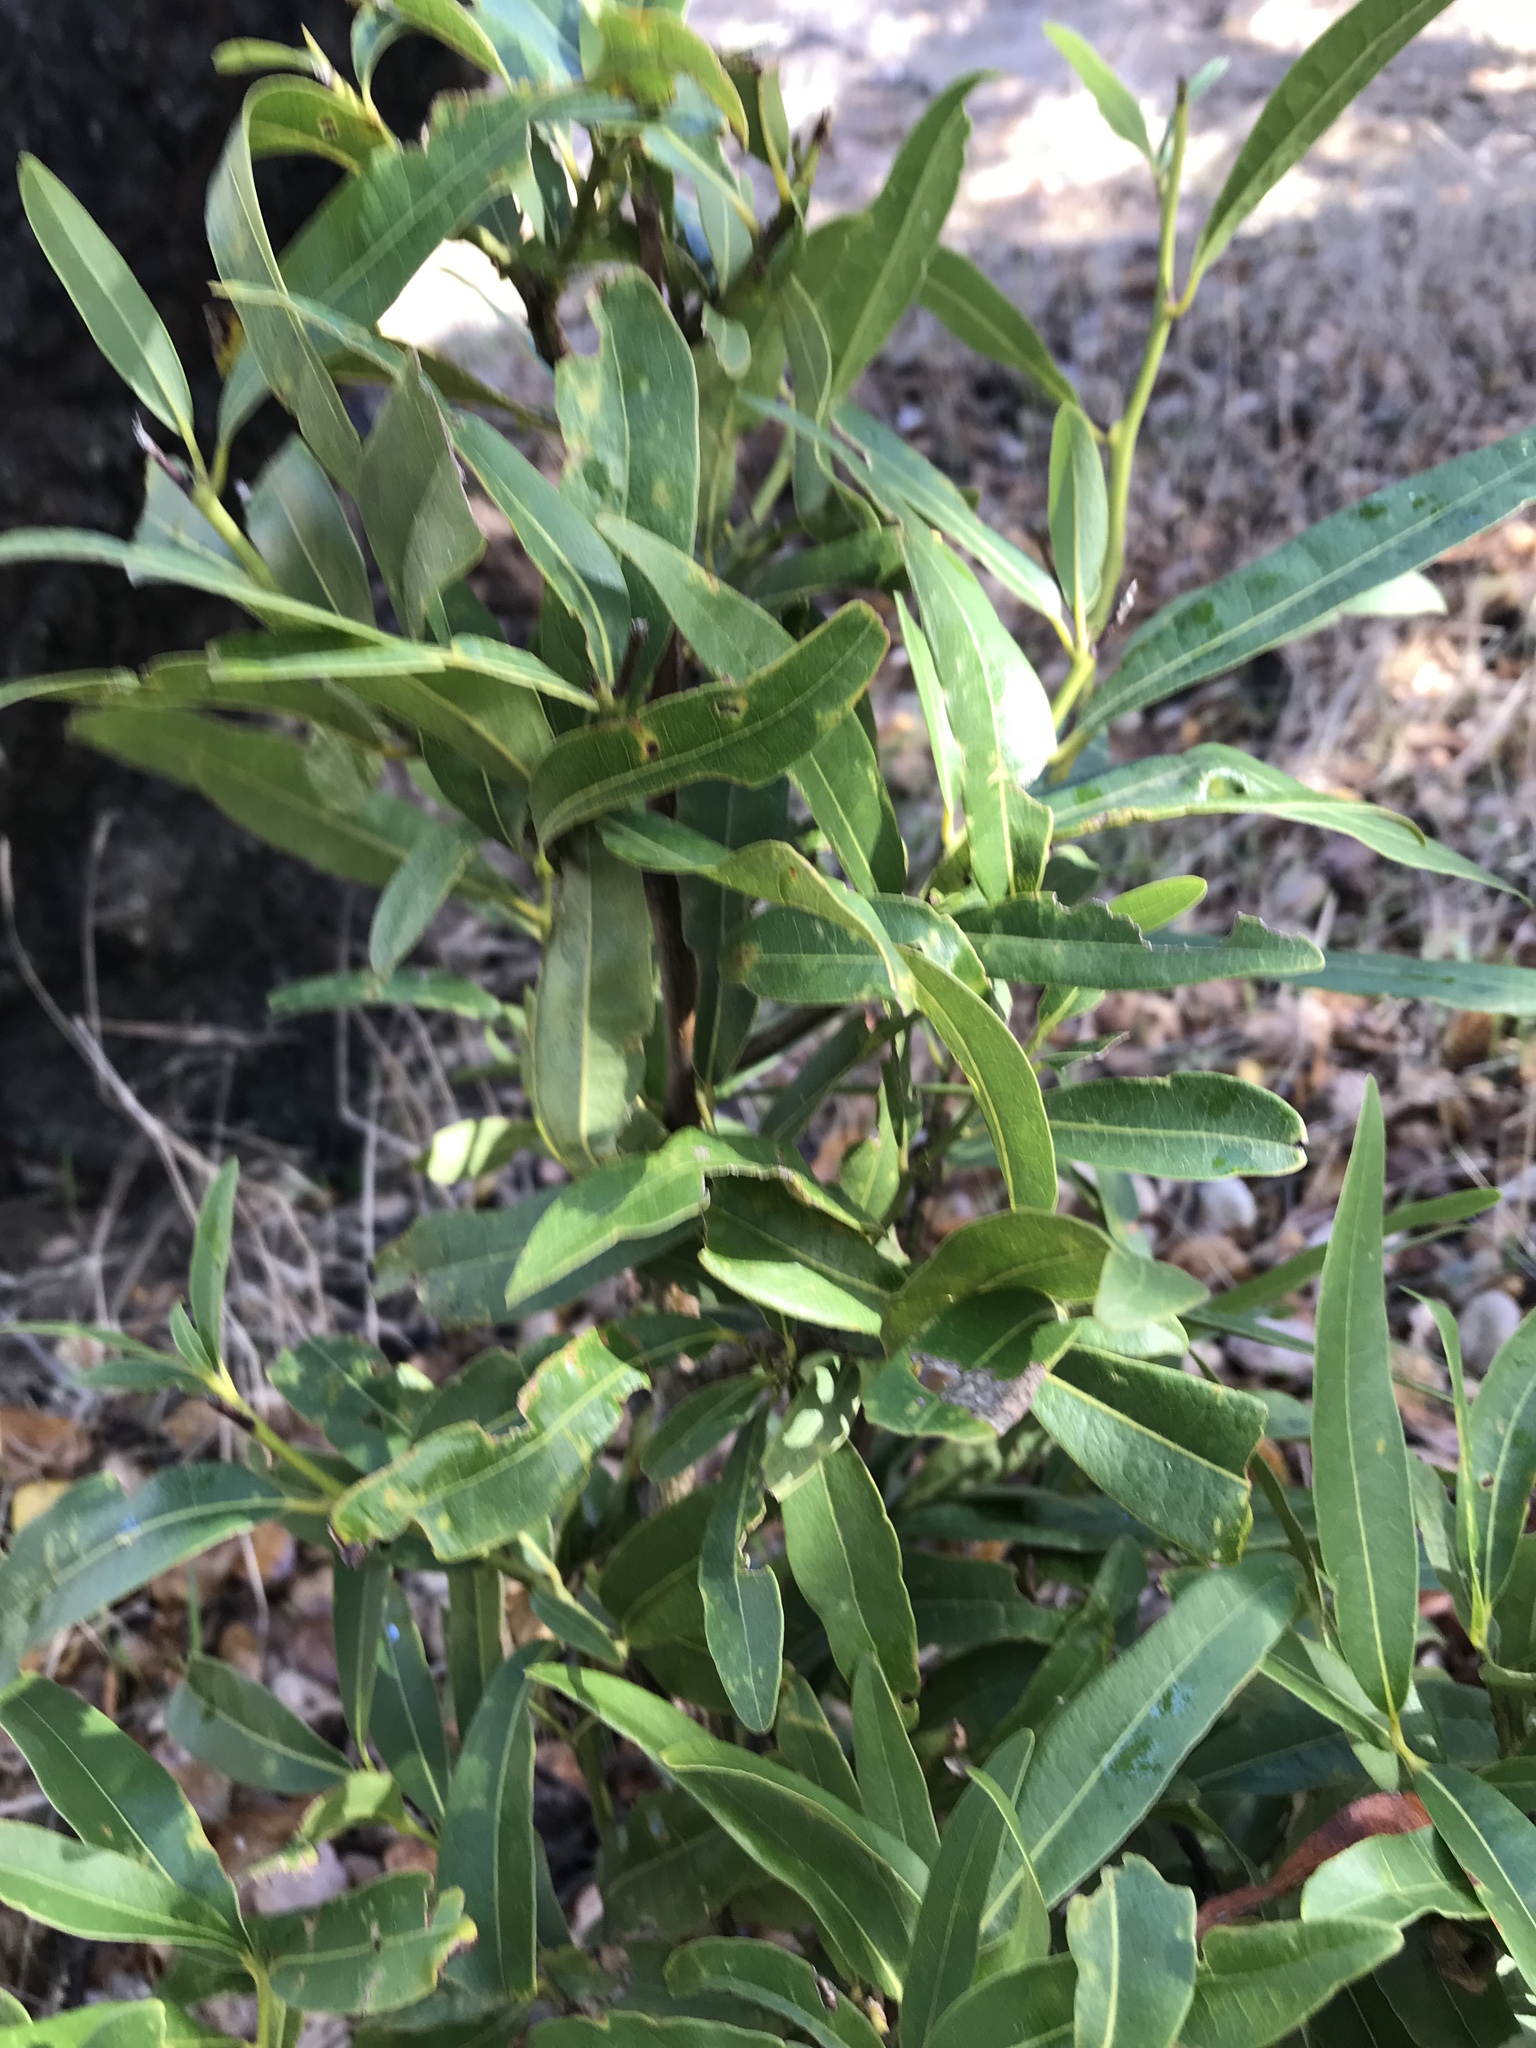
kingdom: Plantae
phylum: Tracheophyta
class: Magnoliopsida
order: Laurales
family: Lauraceae
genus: Umbellularia
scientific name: Umbellularia californica
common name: California bay
